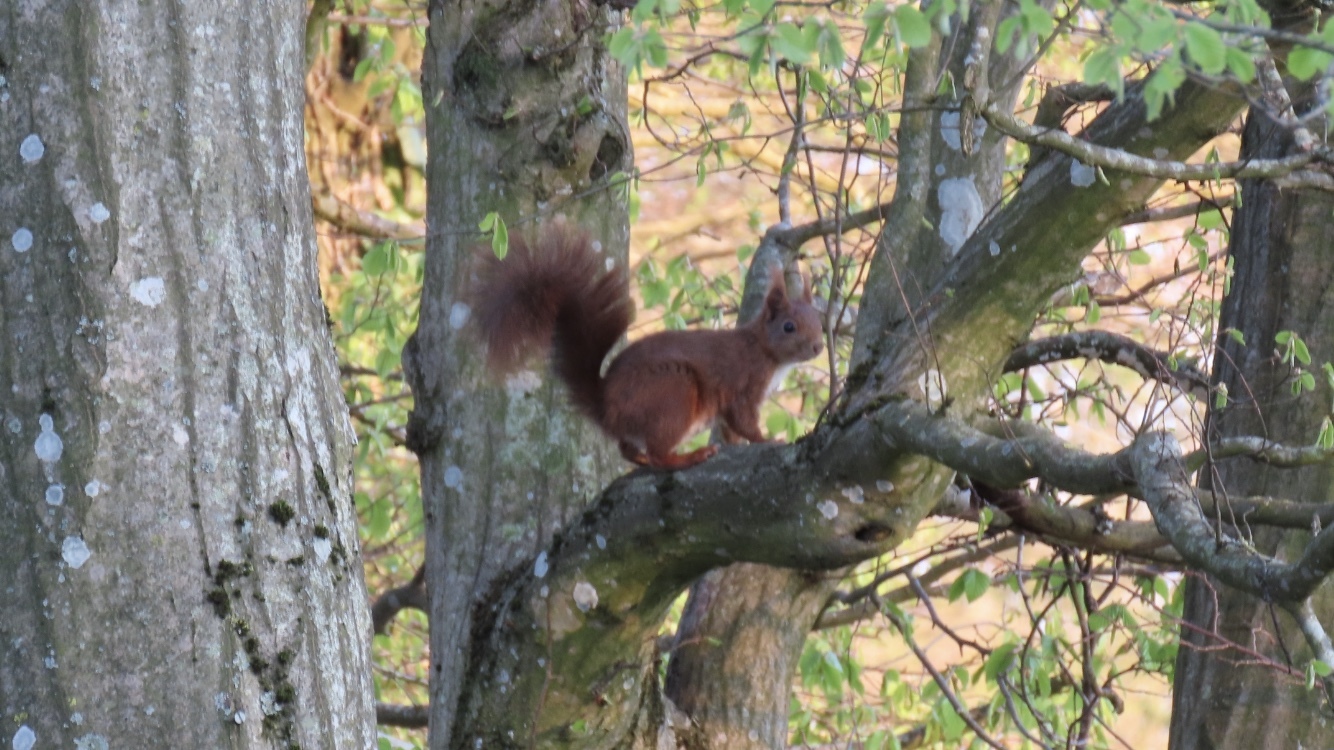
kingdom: Animalia
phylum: Chordata
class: Mammalia
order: Rodentia
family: Sciuridae
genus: Sciurus
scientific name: Sciurus vulgaris
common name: Eurasian red squirrel
